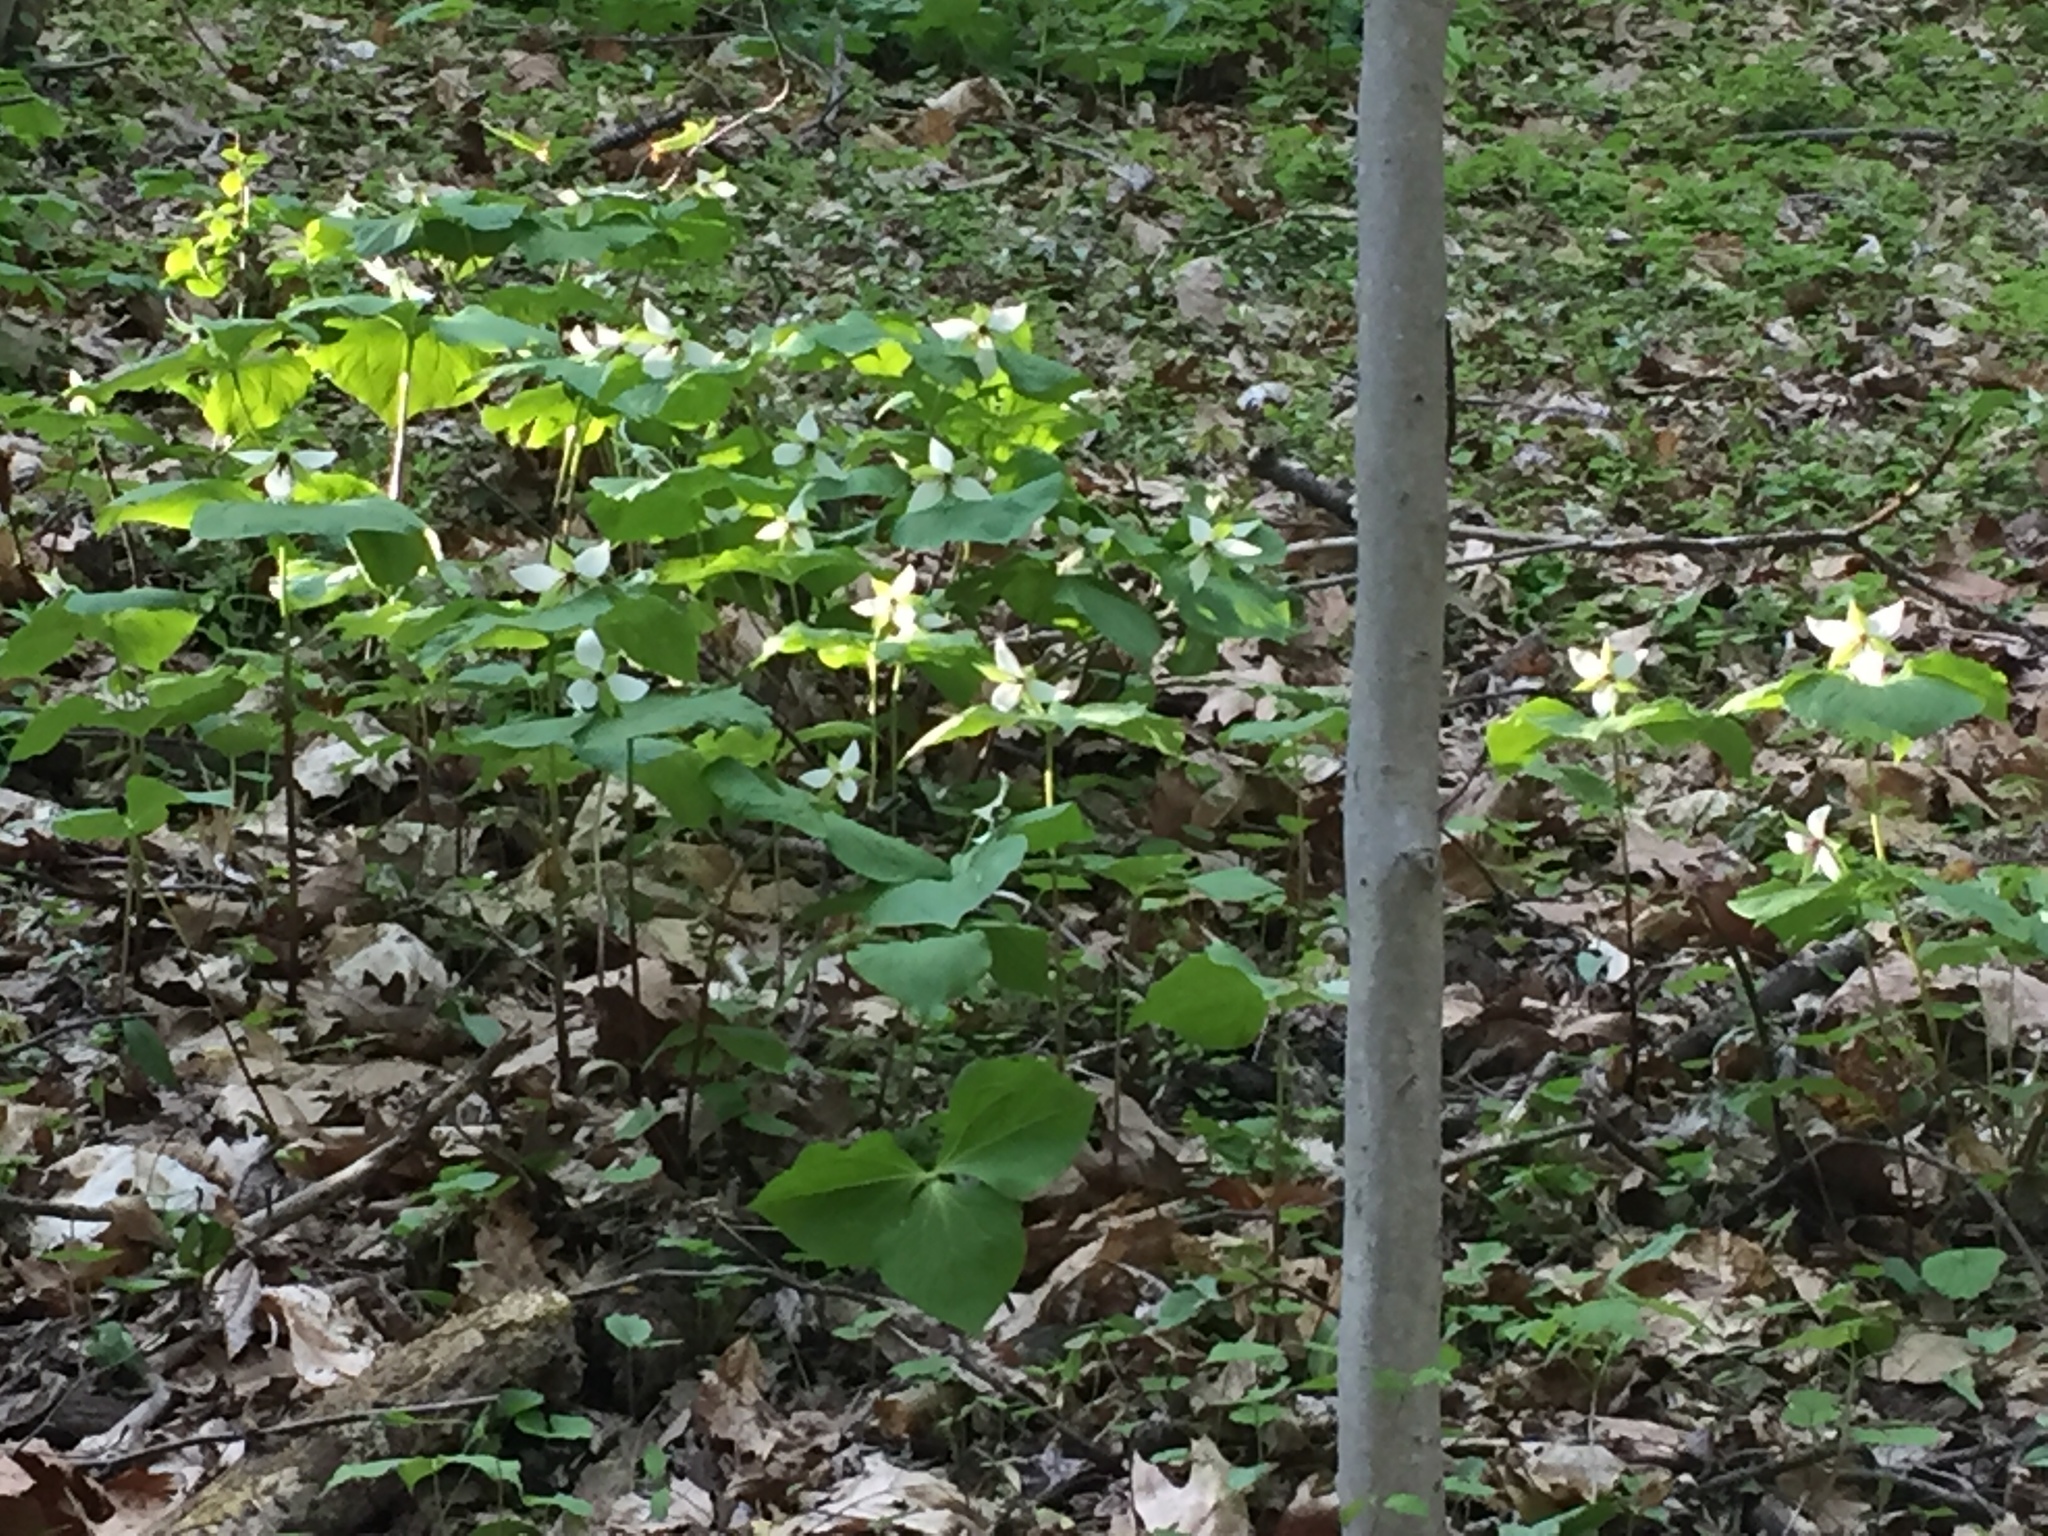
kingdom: Plantae
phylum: Tracheophyta
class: Liliopsida
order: Liliales
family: Melanthiaceae
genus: Trillium
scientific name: Trillium erectum
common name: Purple trillium
